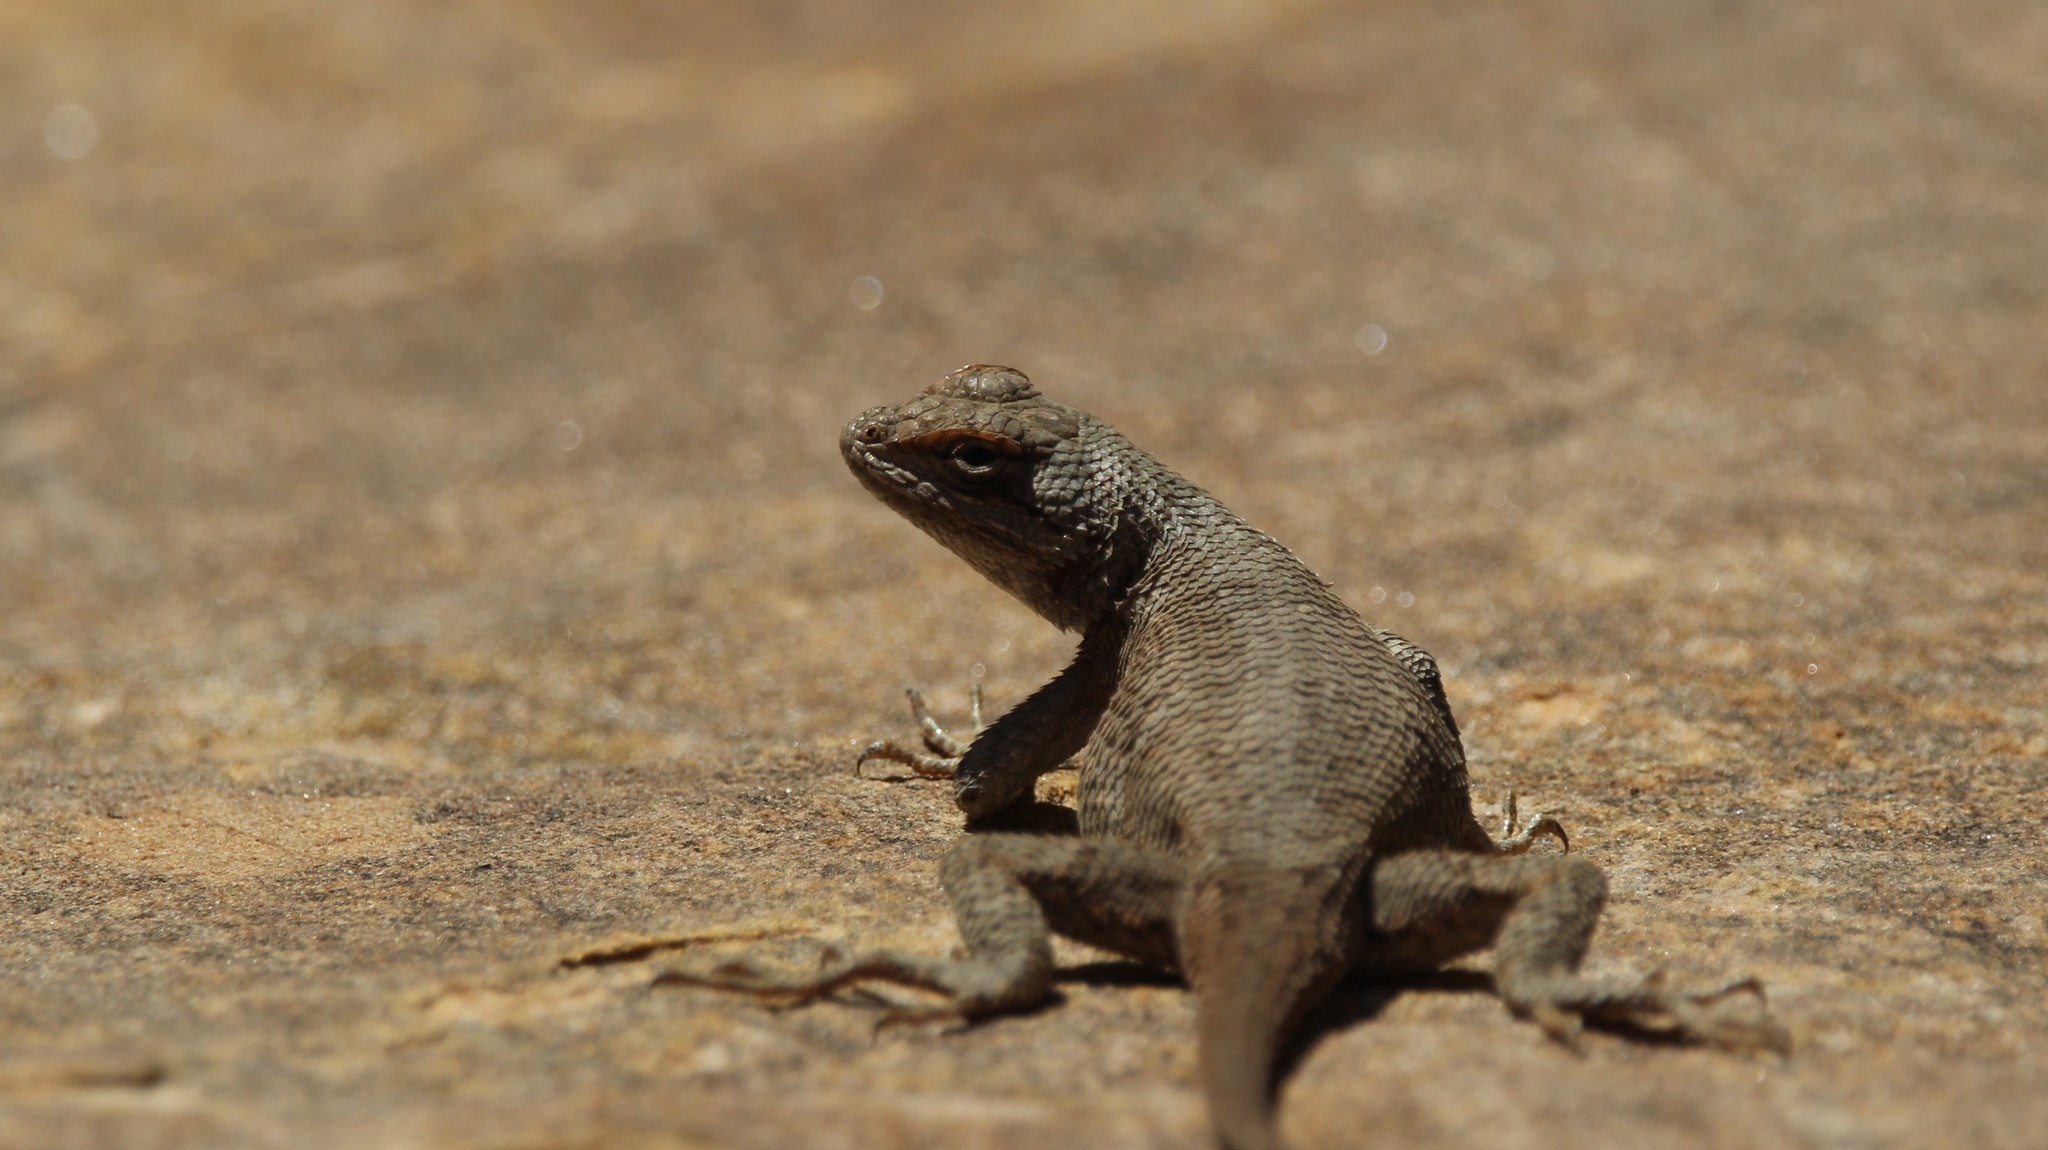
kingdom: Animalia
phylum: Chordata
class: Squamata
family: Phrynosomatidae
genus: Sceloporus
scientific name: Sceloporus tristichus
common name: Plateau fence lizard
